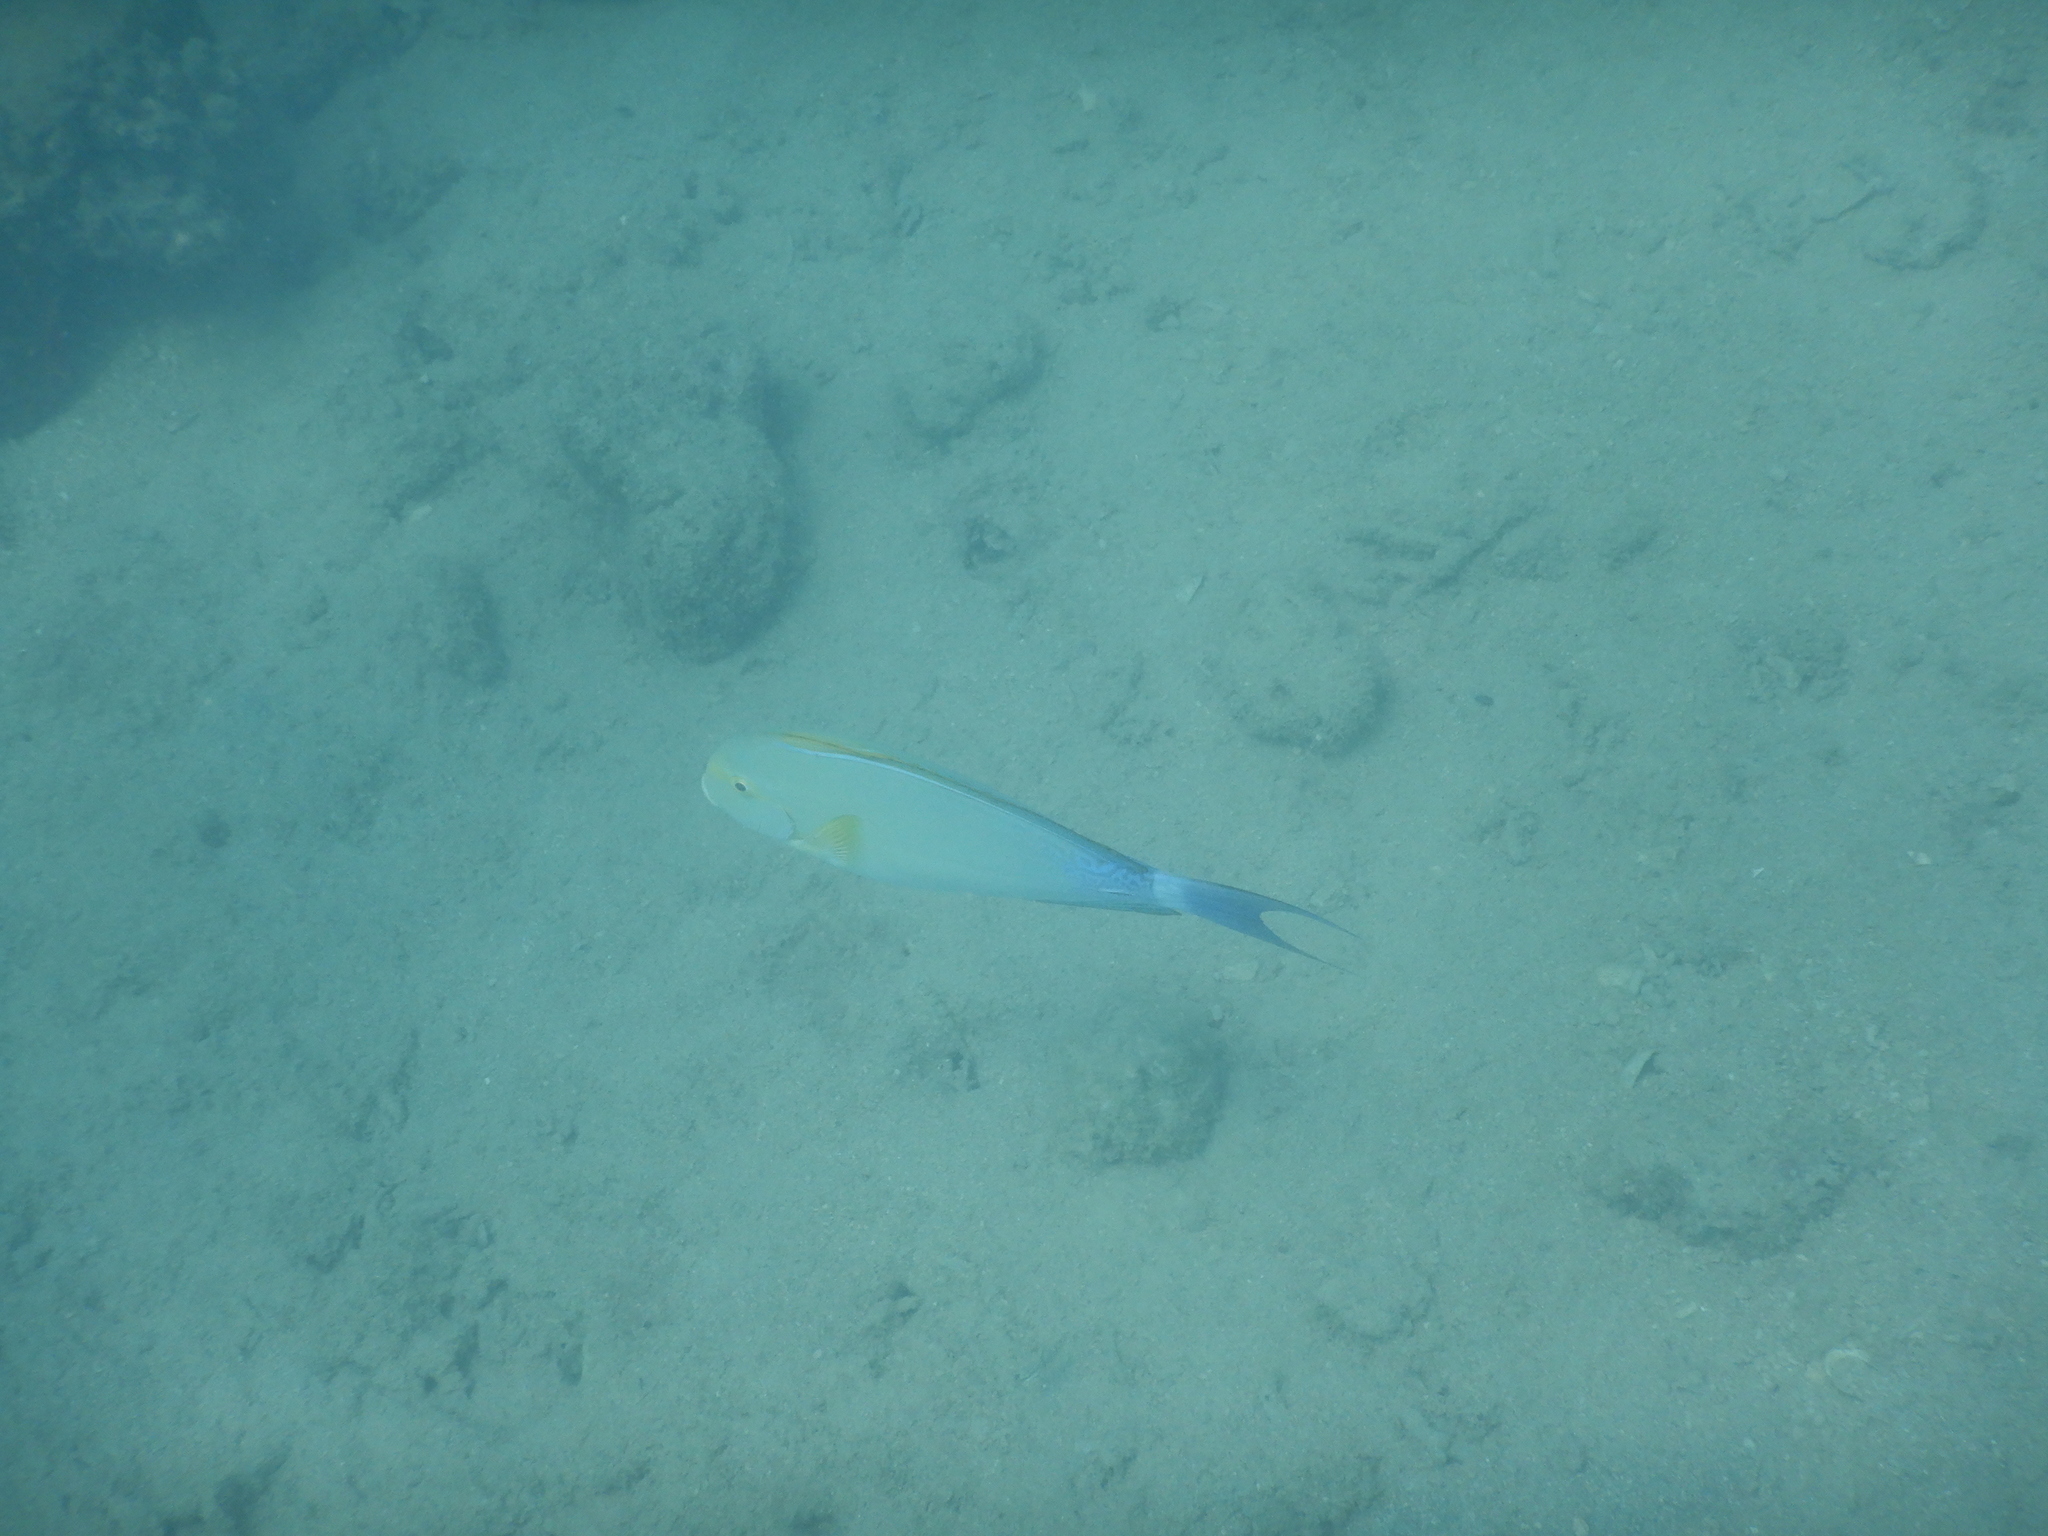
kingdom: Animalia
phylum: Chordata
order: Perciformes
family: Acanthuridae
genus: Acanthurus
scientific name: Acanthurus xanthopterus
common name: Cuvier's surgeonfish
